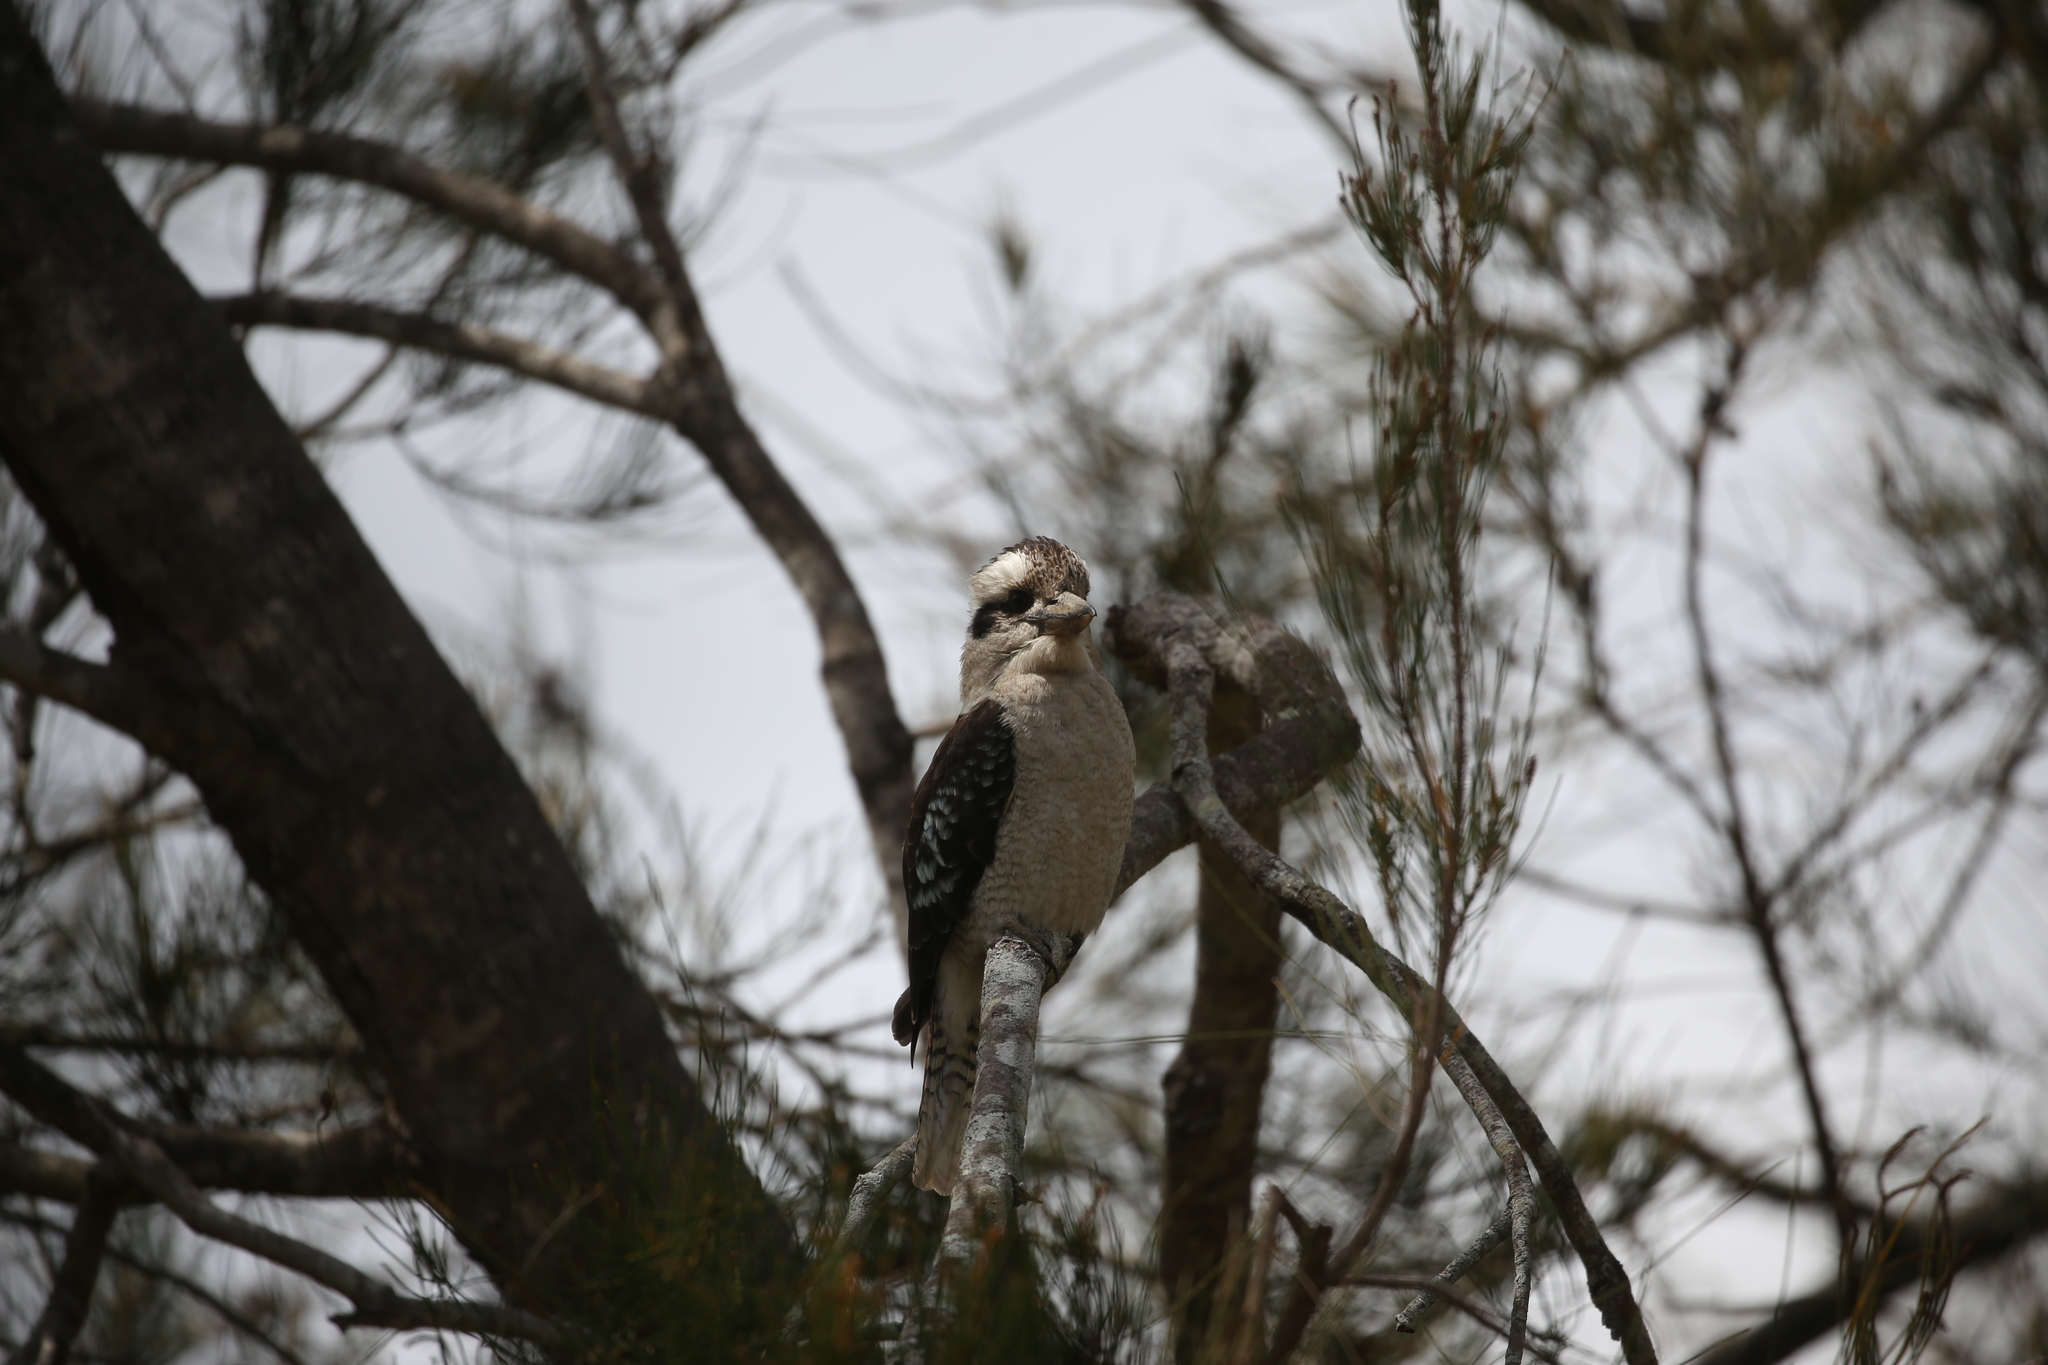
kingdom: Animalia
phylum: Chordata
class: Aves
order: Coraciiformes
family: Alcedinidae
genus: Dacelo
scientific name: Dacelo novaeguineae
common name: Laughing kookaburra
